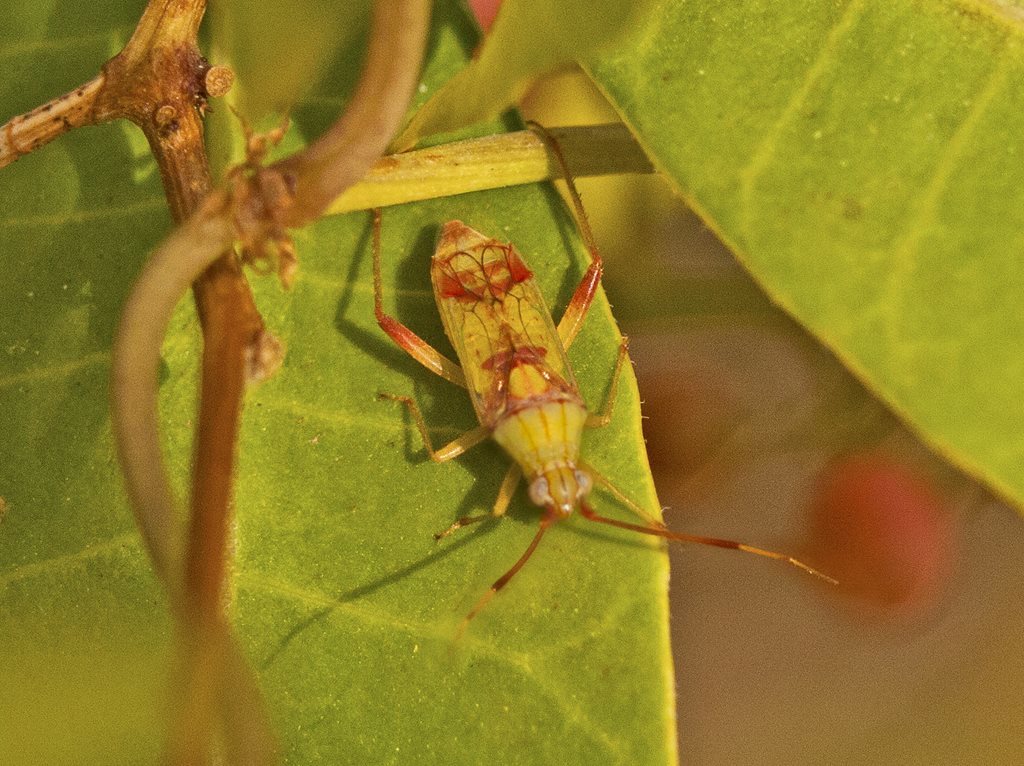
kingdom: Animalia
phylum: Arthropoda
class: Insecta
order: Hemiptera
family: Miridae
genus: Hyalopeplus
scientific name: Hyalopeplus loriae
